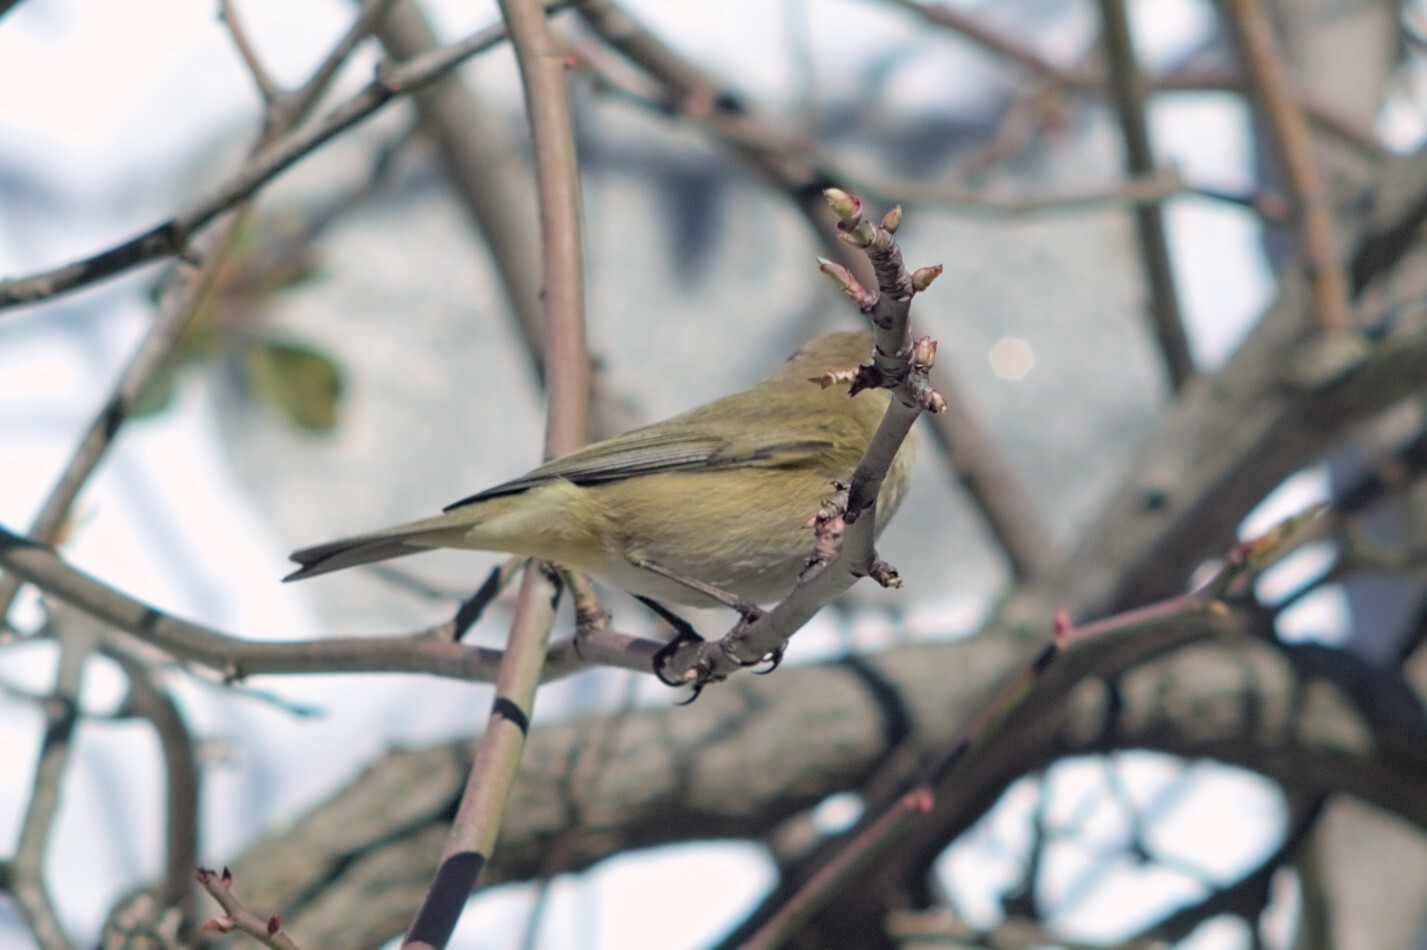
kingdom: Animalia
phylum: Chordata
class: Aves
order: Passeriformes
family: Phylloscopidae
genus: Phylloscopus
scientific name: Phylloscopus collybita
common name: Common chiffchaff
